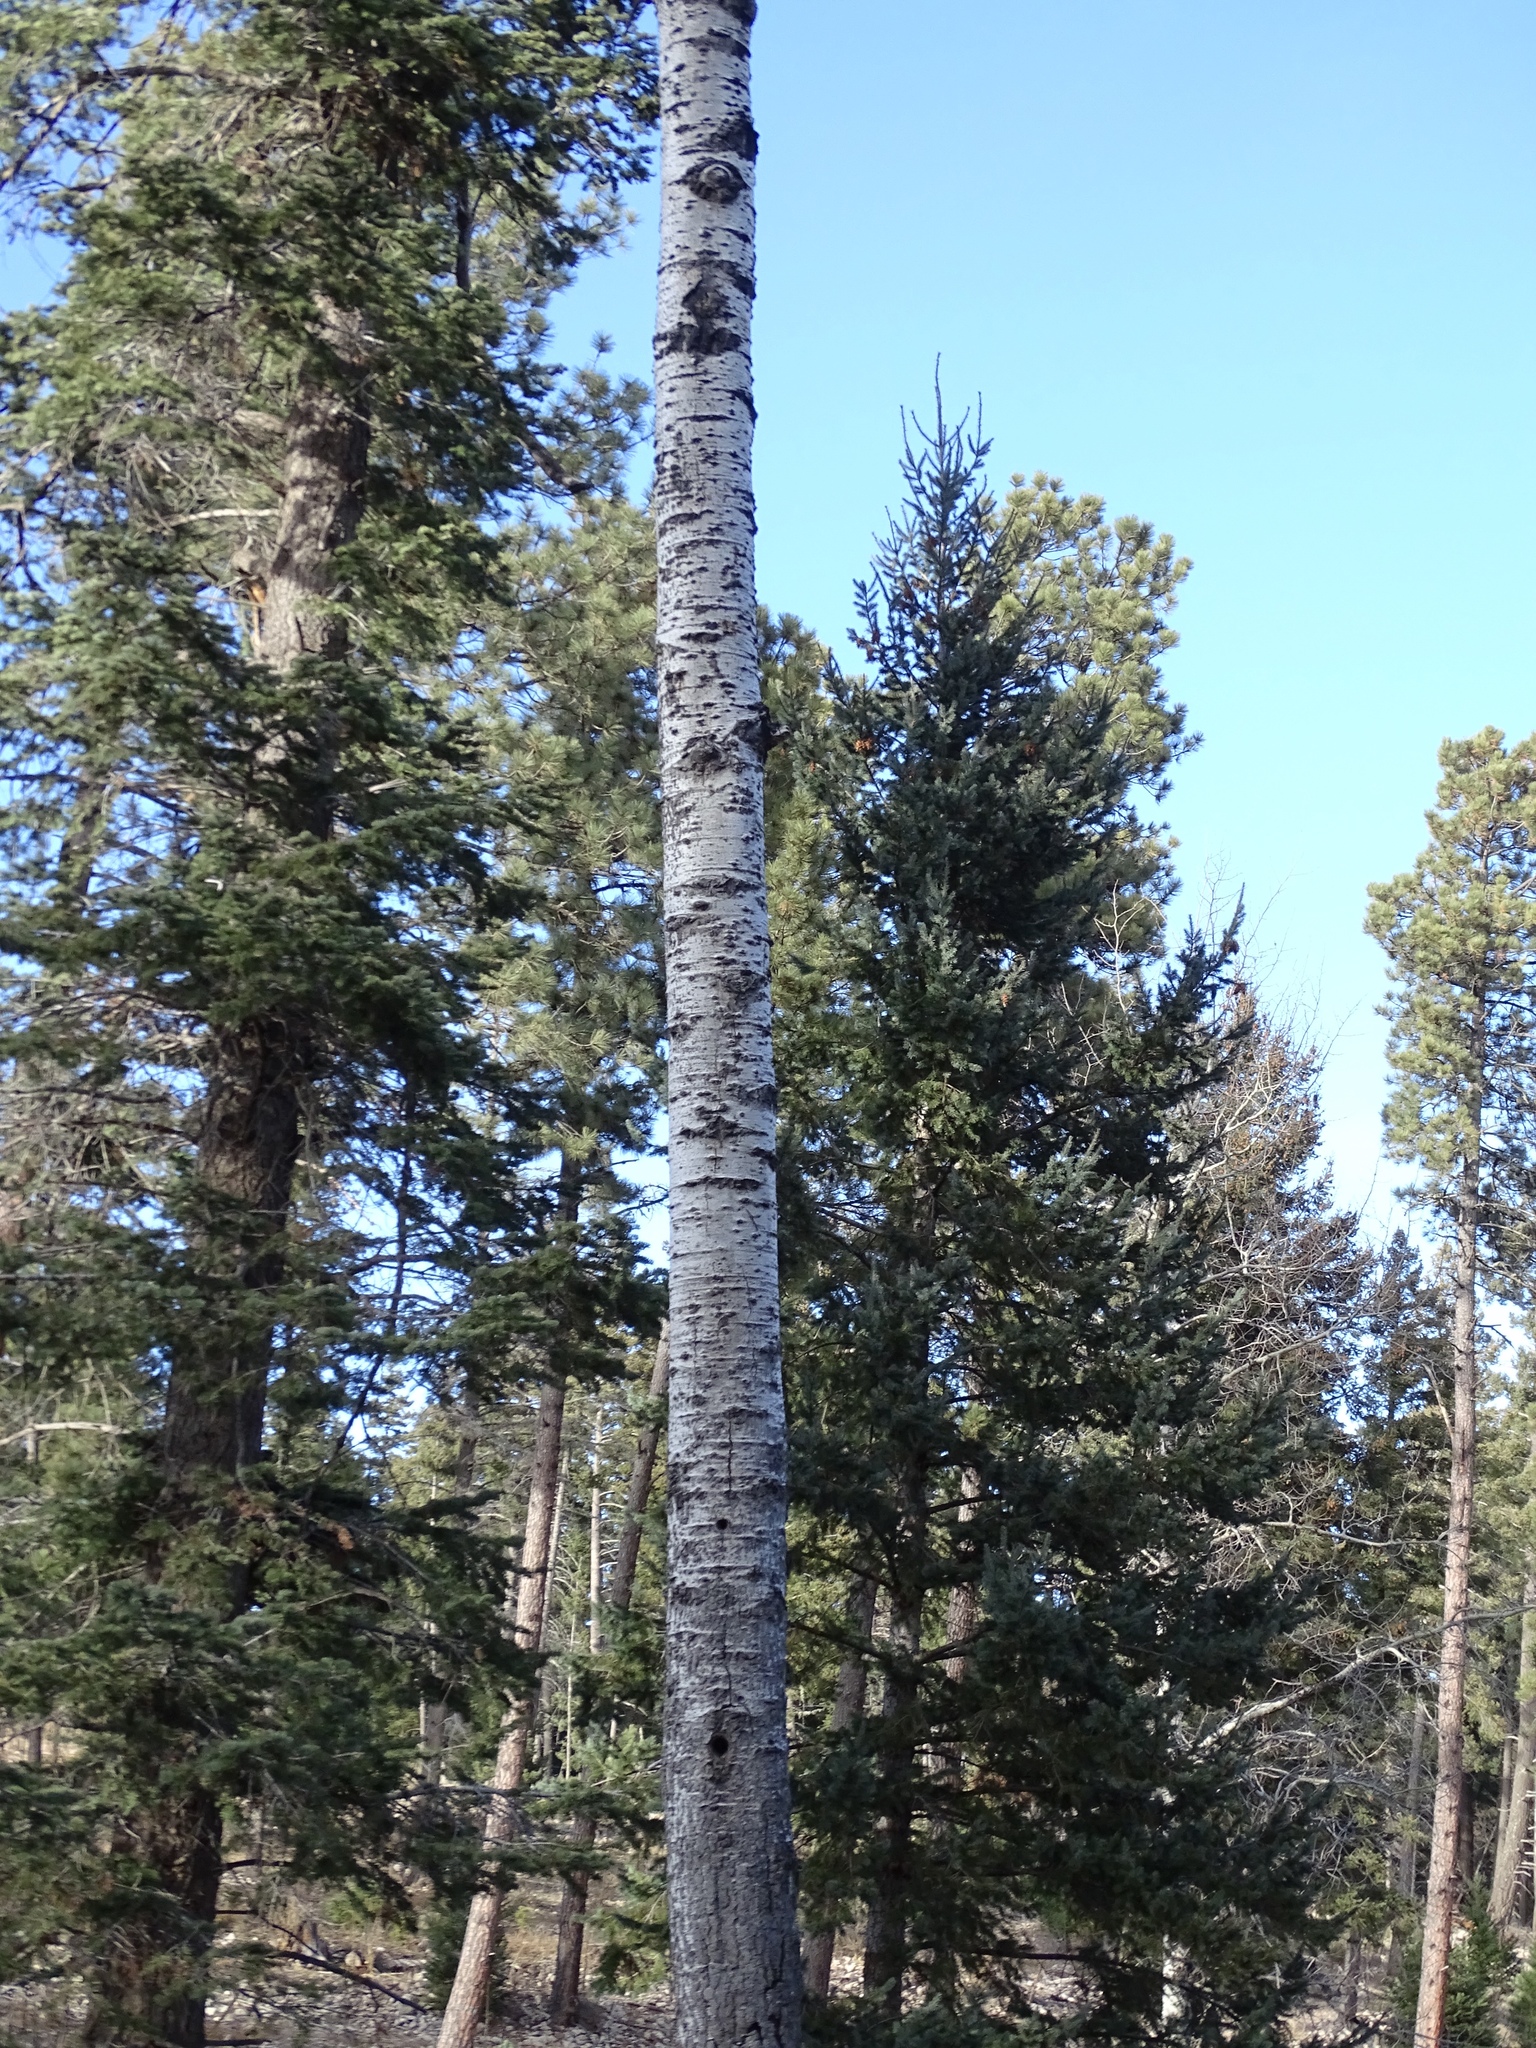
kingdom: Plantae
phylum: Tracheophyta
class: Magnoliopsida
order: Malpighiales
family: Salicaceae
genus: Populus
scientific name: Populus tremuloides
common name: Quaking aspen
